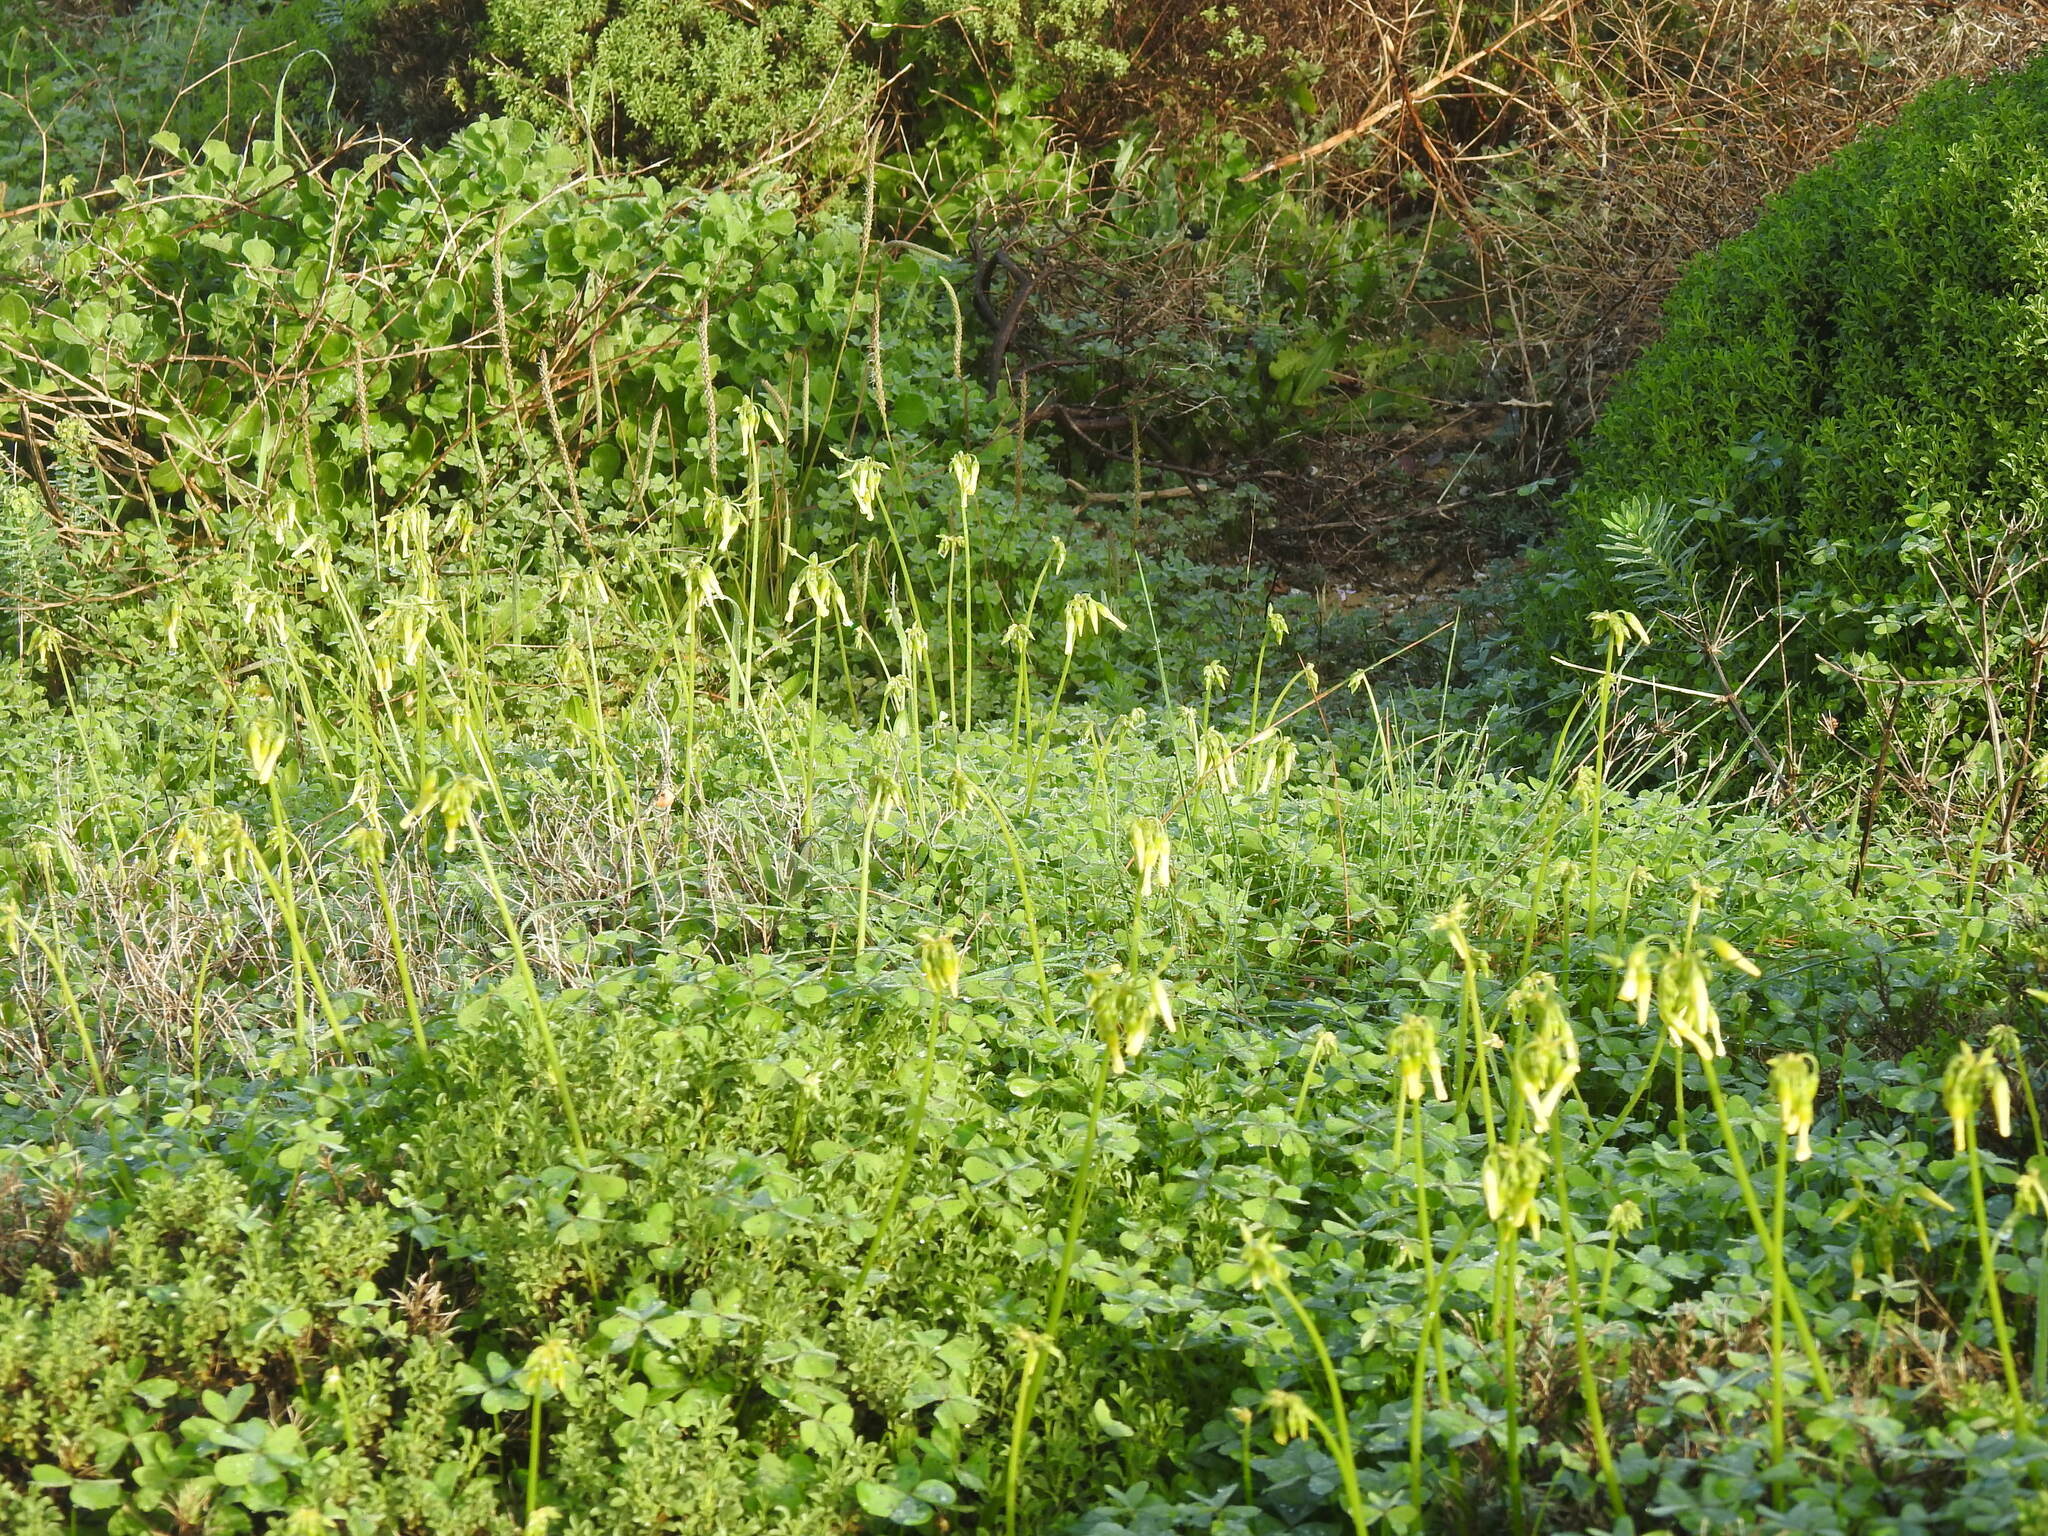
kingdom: Plantae
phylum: Tracheophyta
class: Magnoliopsida
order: Oxalidales
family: Oxalidaceae
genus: Oxalis
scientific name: Oxalis pes-caprae
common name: Bermuda-buttercup
